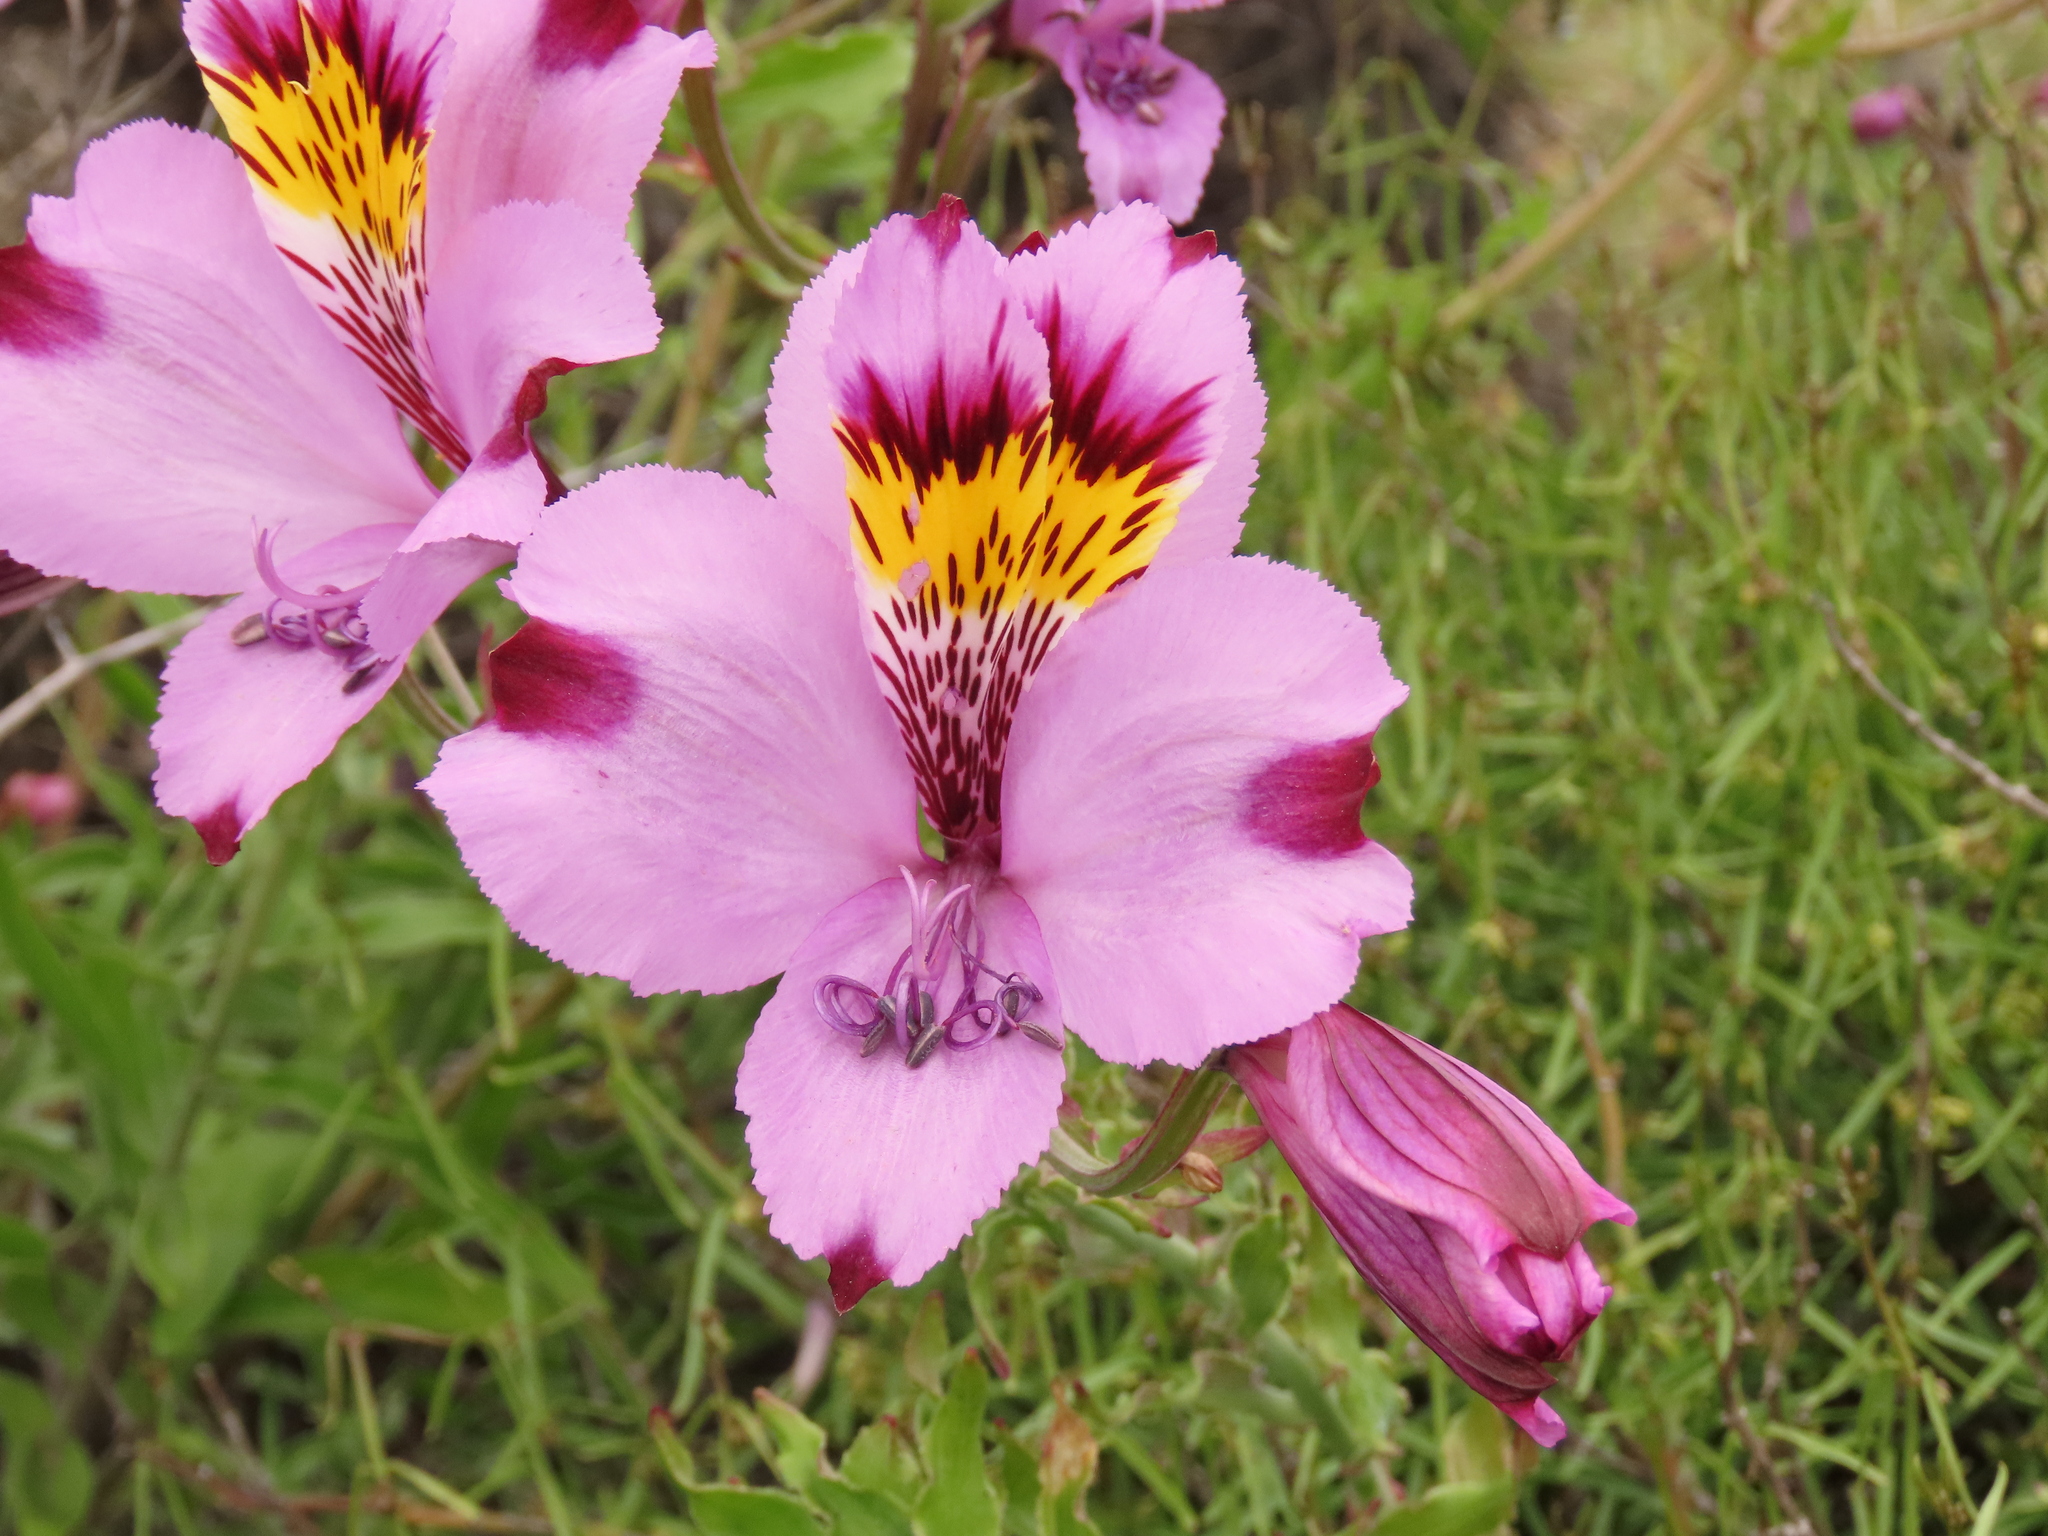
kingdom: Plantae
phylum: Tracheophyta
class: Liliopsida
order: Liliales
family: Alstroemeriaceae
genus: Alstroemeria
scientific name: Alstroemeria philippii
